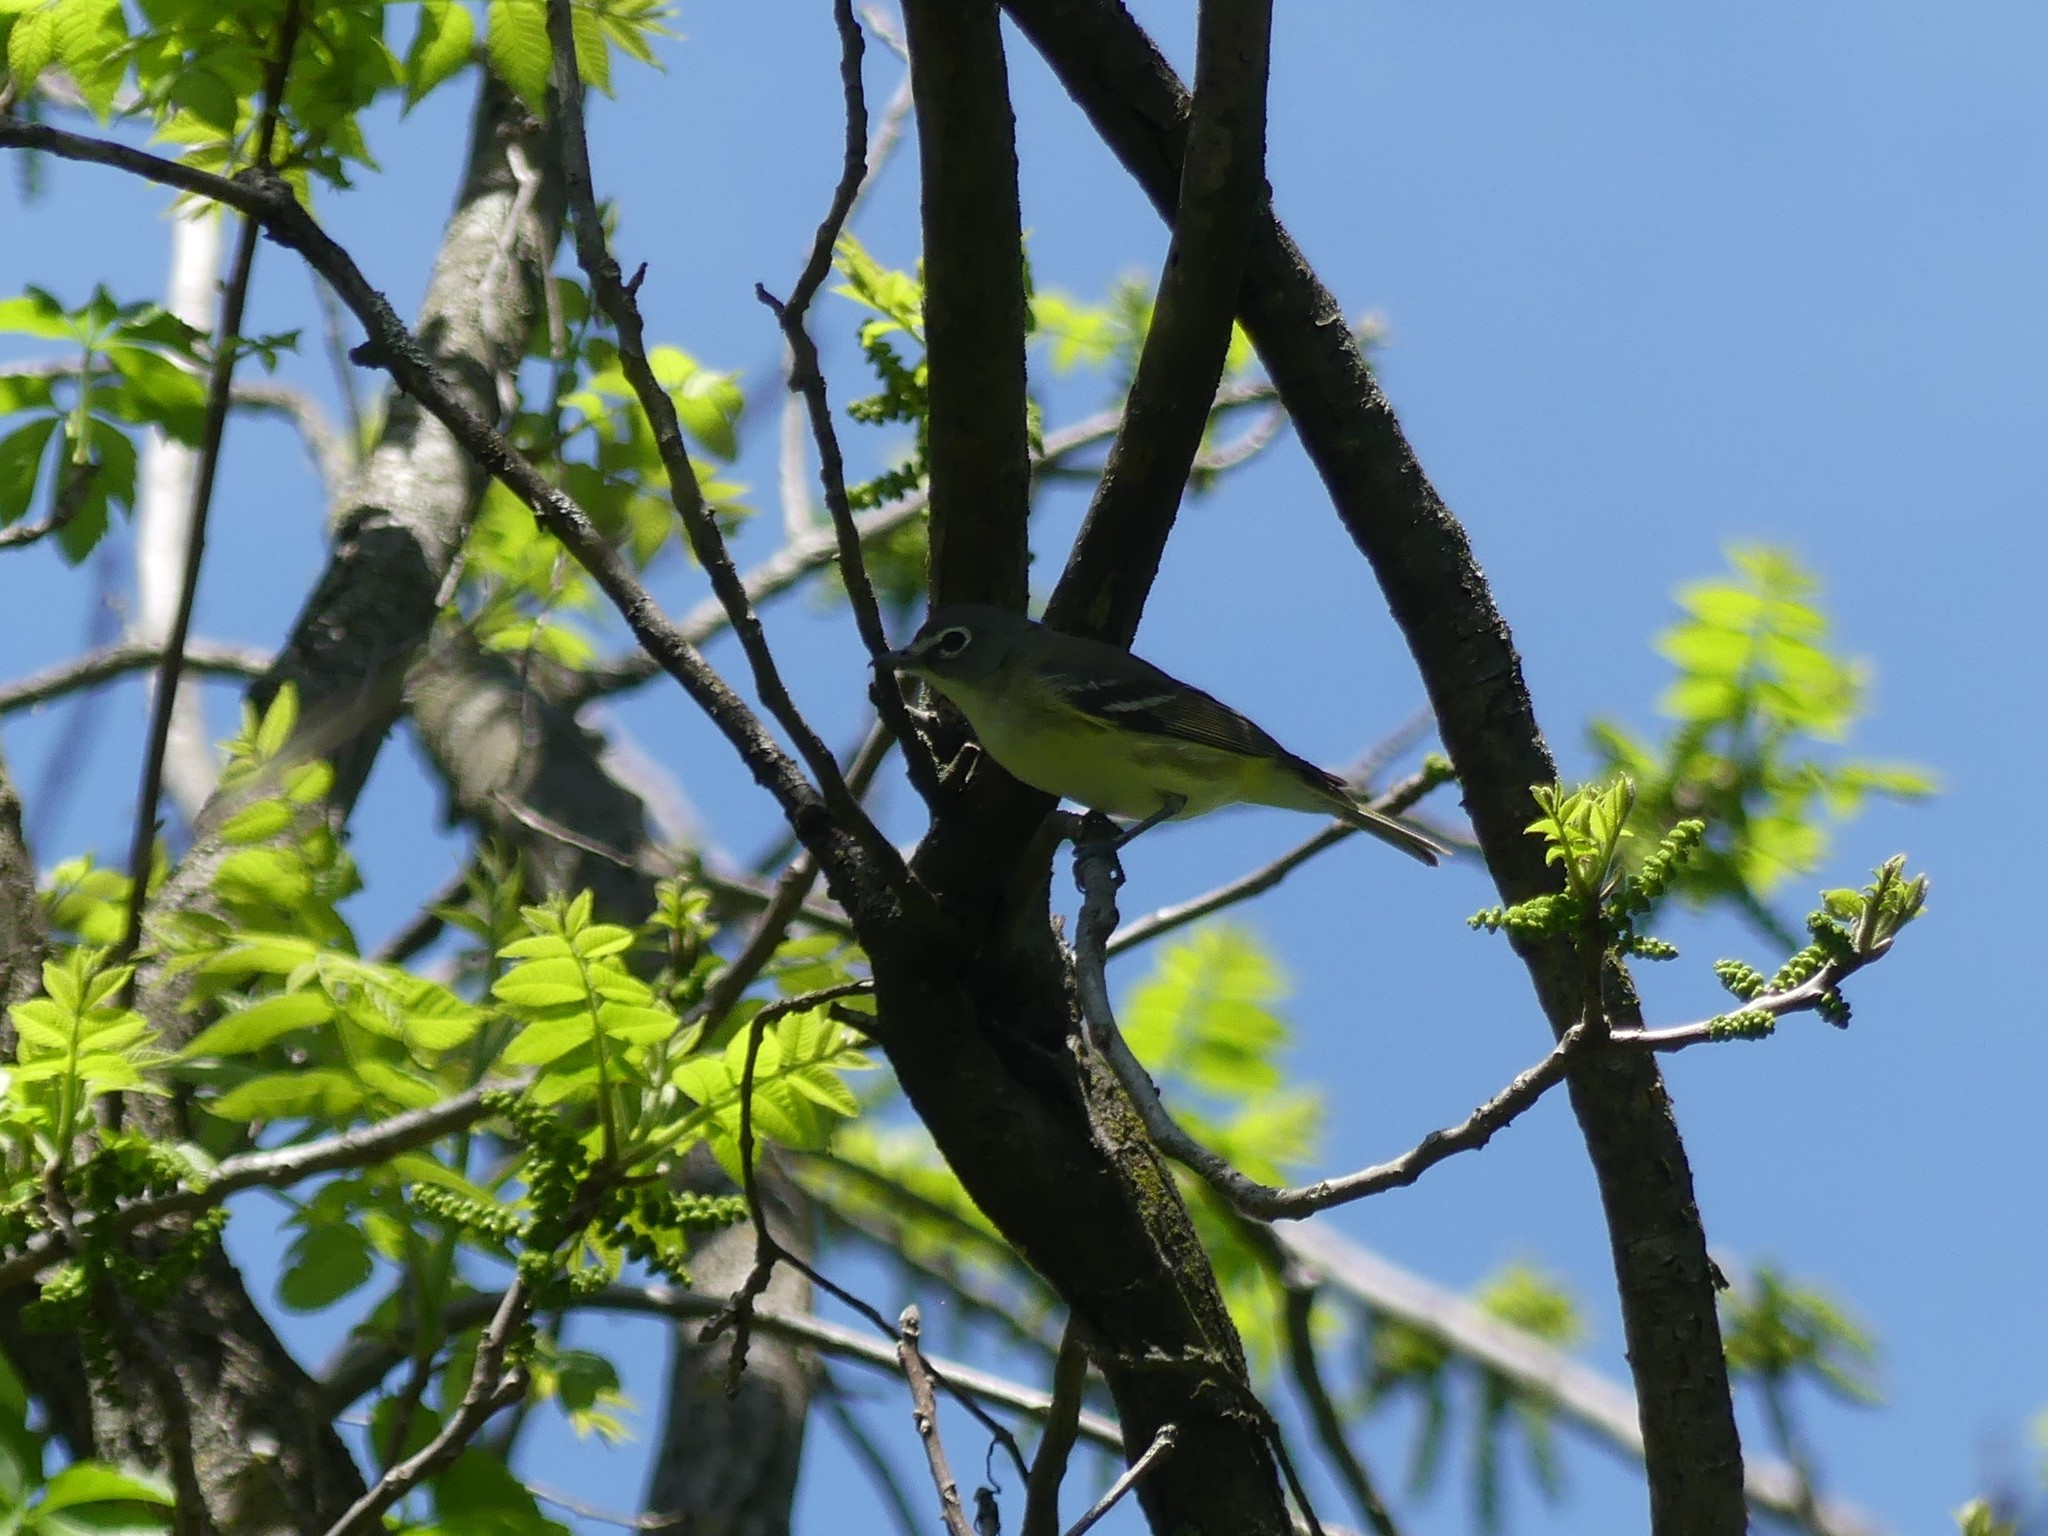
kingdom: Animalia
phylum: Chordata
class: Aves
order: Passeriformes
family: Vireonidae
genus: Vireo
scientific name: Vireo solitarius
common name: Blue-headed vireo
